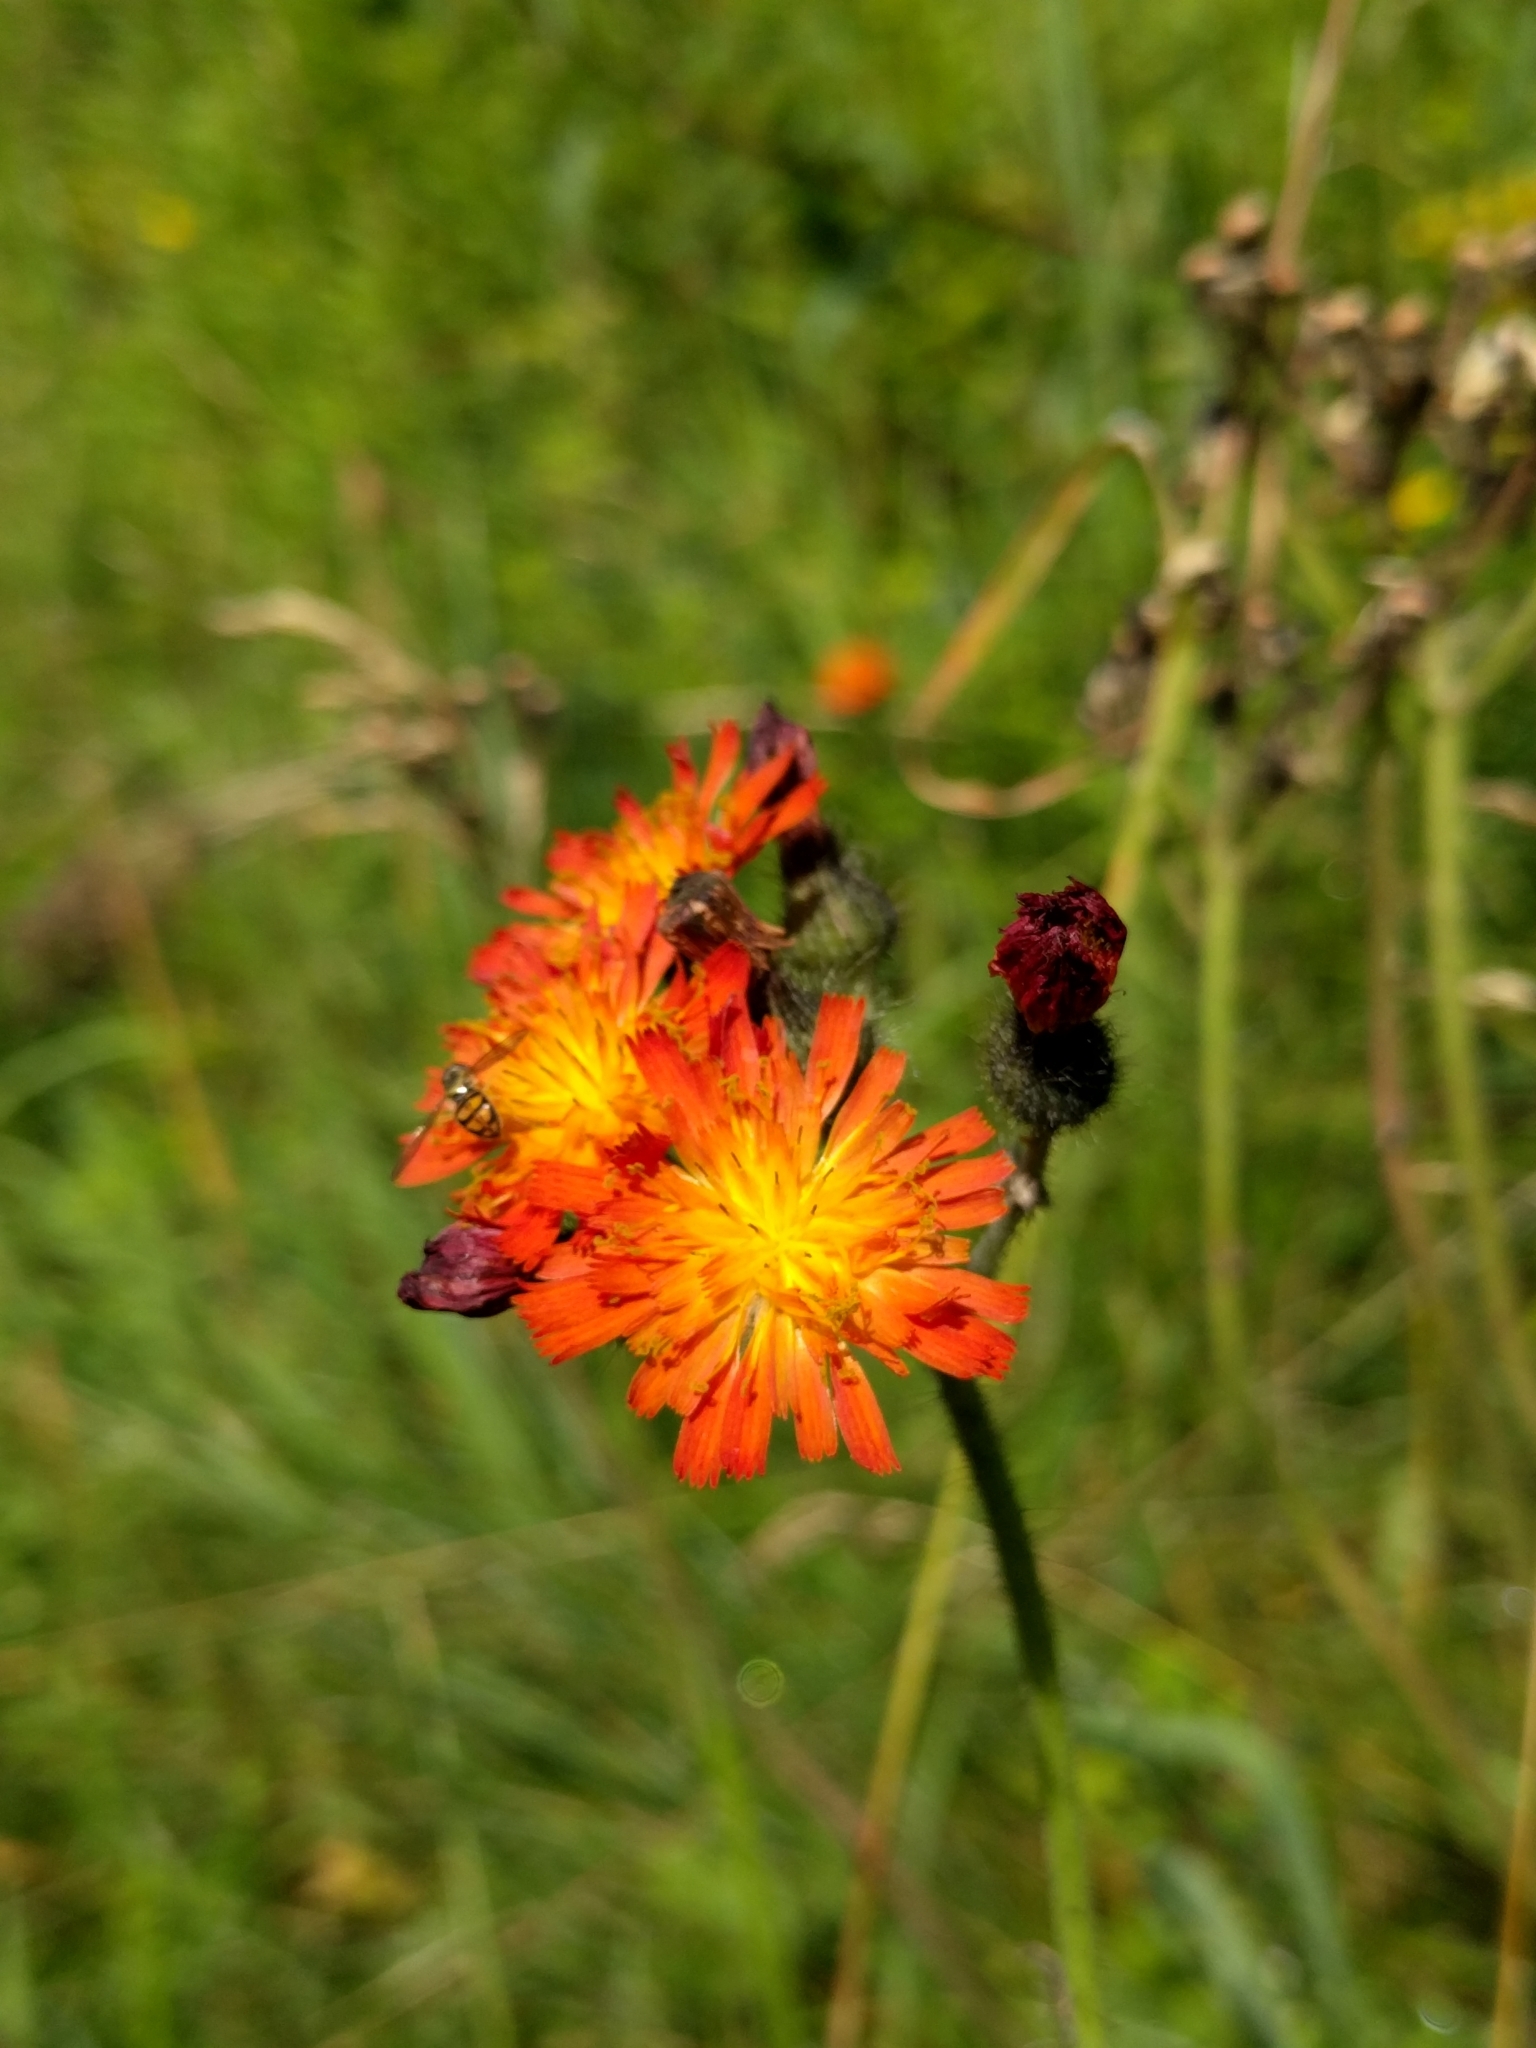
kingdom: Plantae
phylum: Tracheophyta
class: Magnoliopsida
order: Asterales
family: Asteraceae
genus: Pilosella
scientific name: Pilosella aurantiaca
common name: Fox-and-cubs
